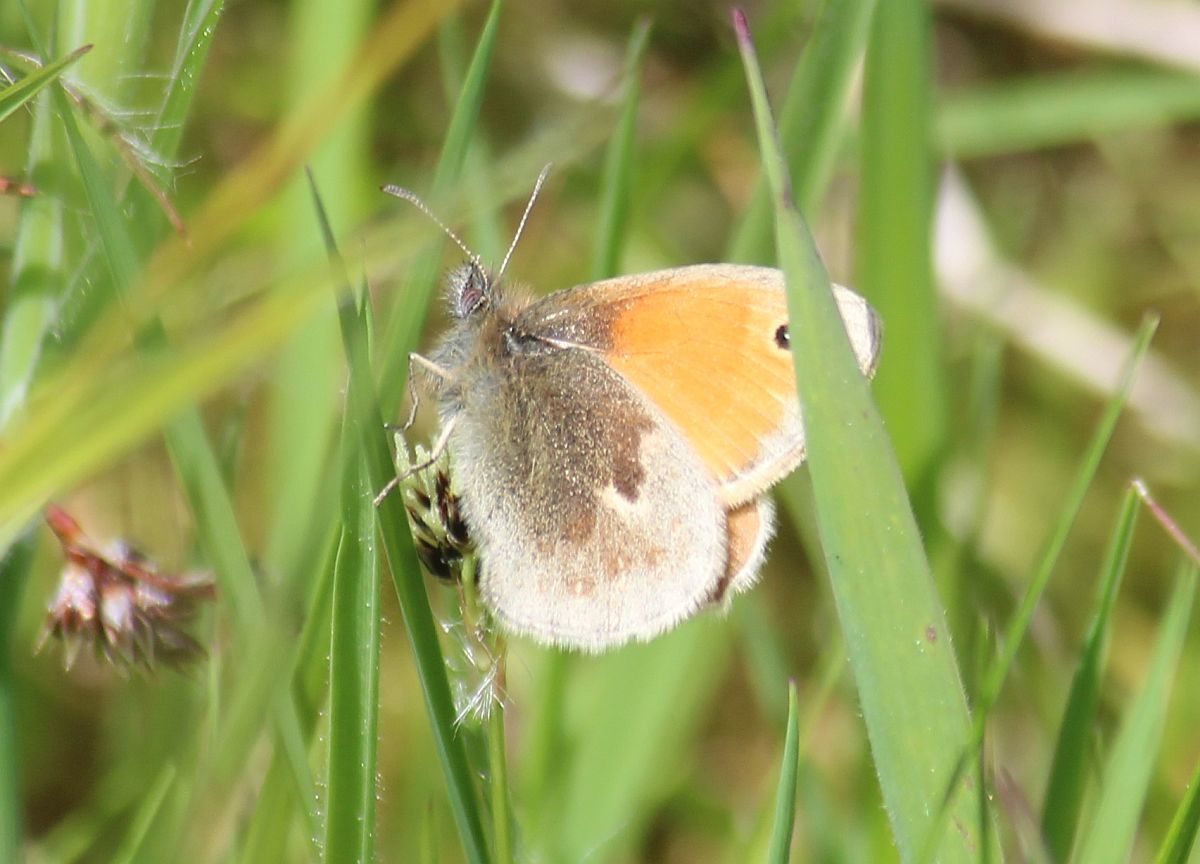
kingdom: Animalia
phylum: Arthropoda
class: Insecta
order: Lepidoptera
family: Nymphalidae
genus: Coenonympha
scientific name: Coenonympha pamphilus
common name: Small heath
